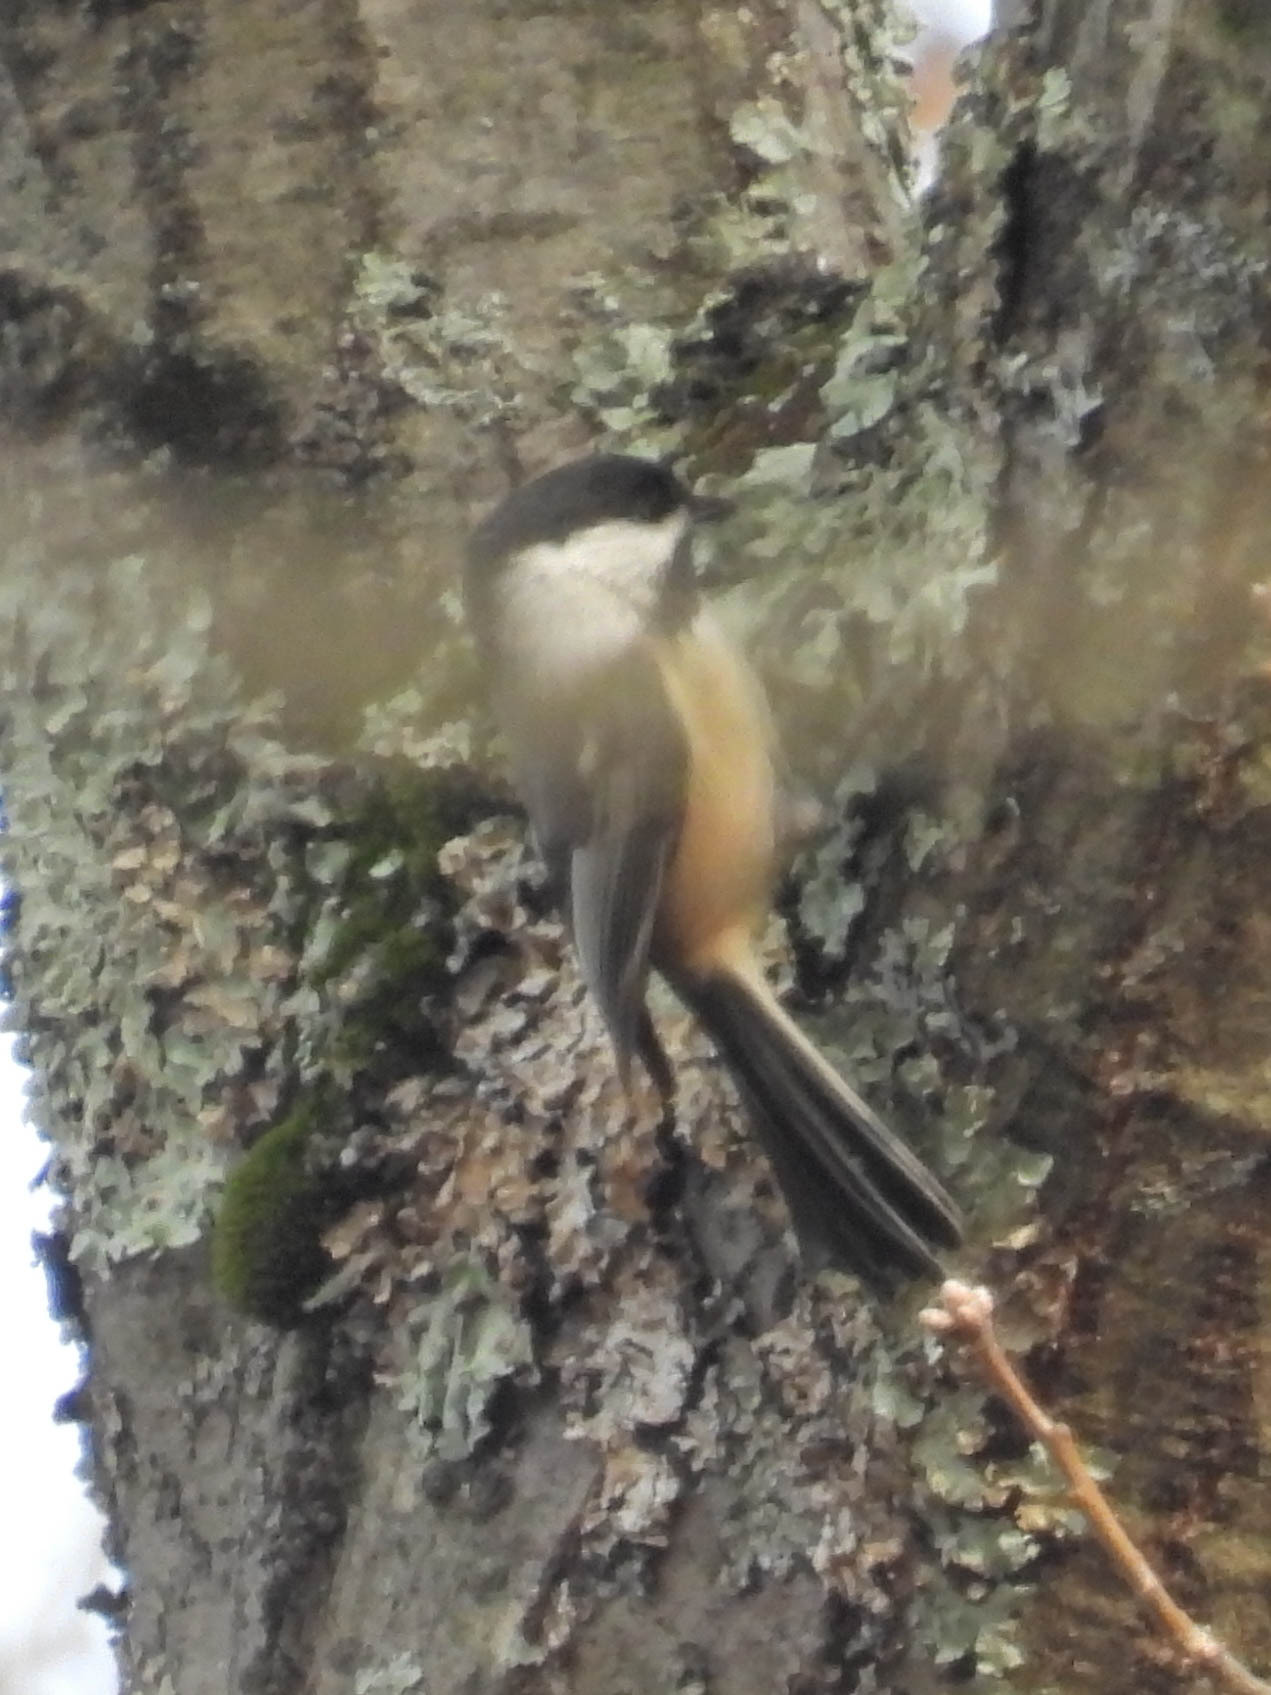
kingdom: Animalia
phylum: Chordata
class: Aves
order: Passeriformes
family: Paridae
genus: Poecile
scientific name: Poecile atricapillus
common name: Black-capped chickadee
